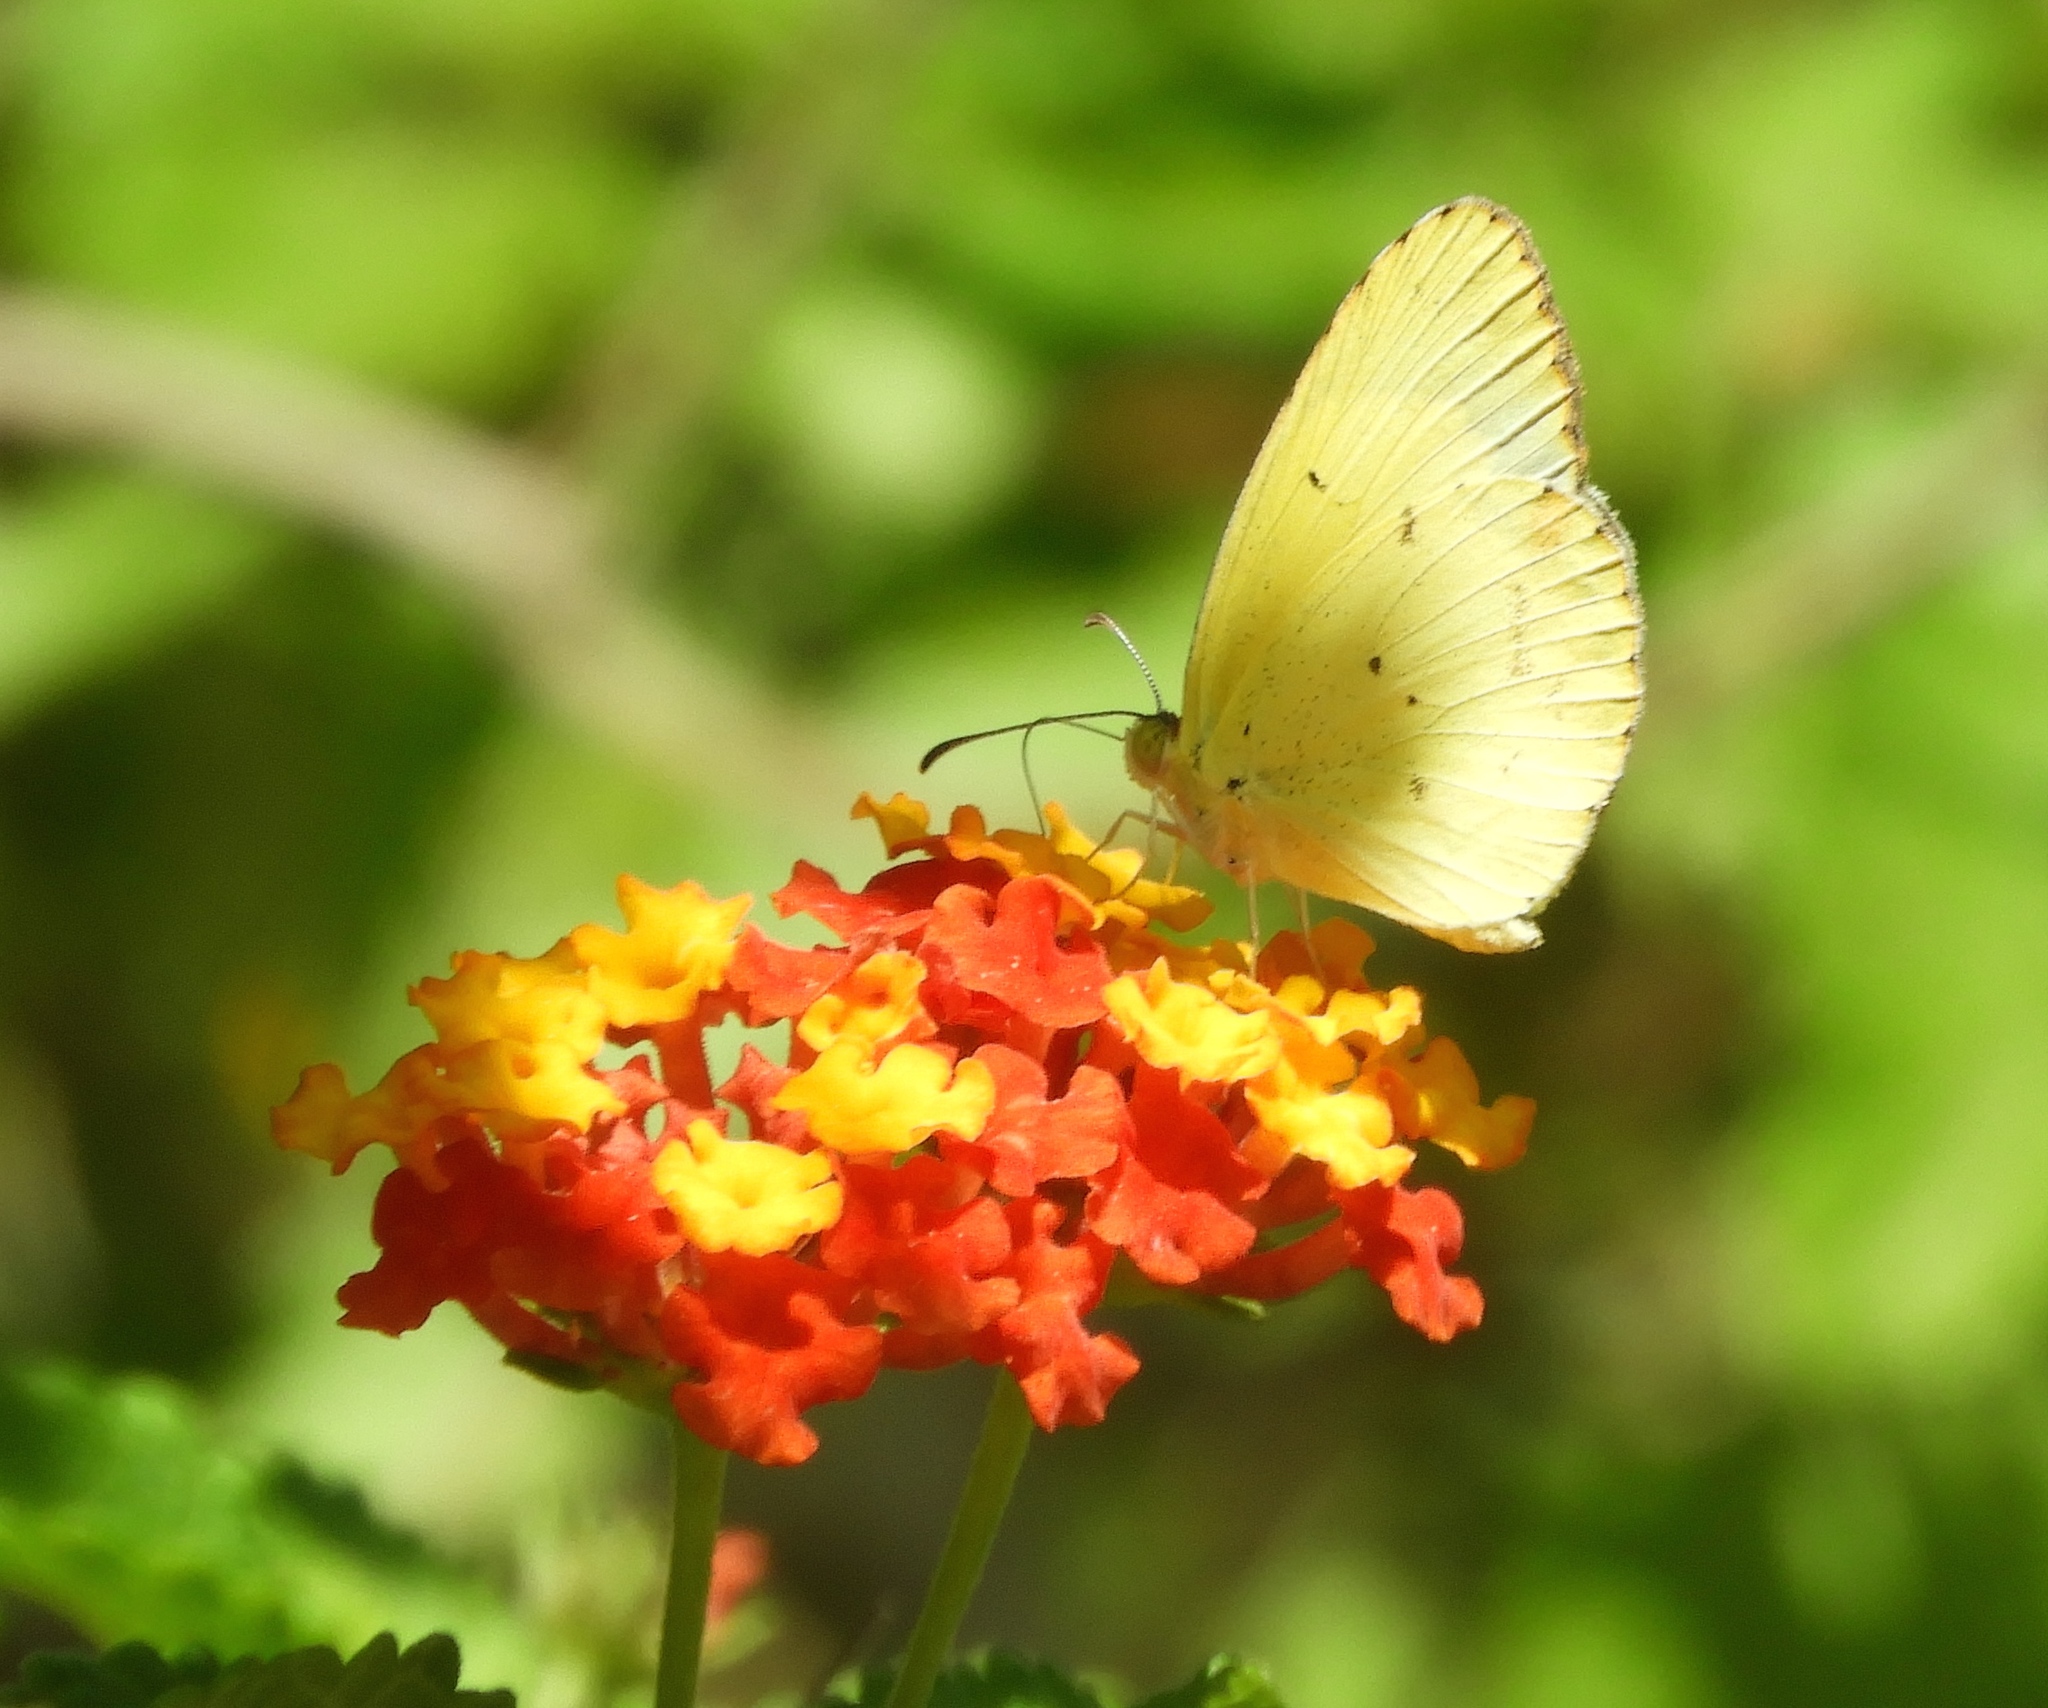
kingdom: Animalia
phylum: Arthropoda
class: Insecta
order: Lepidoptera
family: Pieridae
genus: Pyrisitia
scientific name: Pyrisitia lisa
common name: Little yellow
